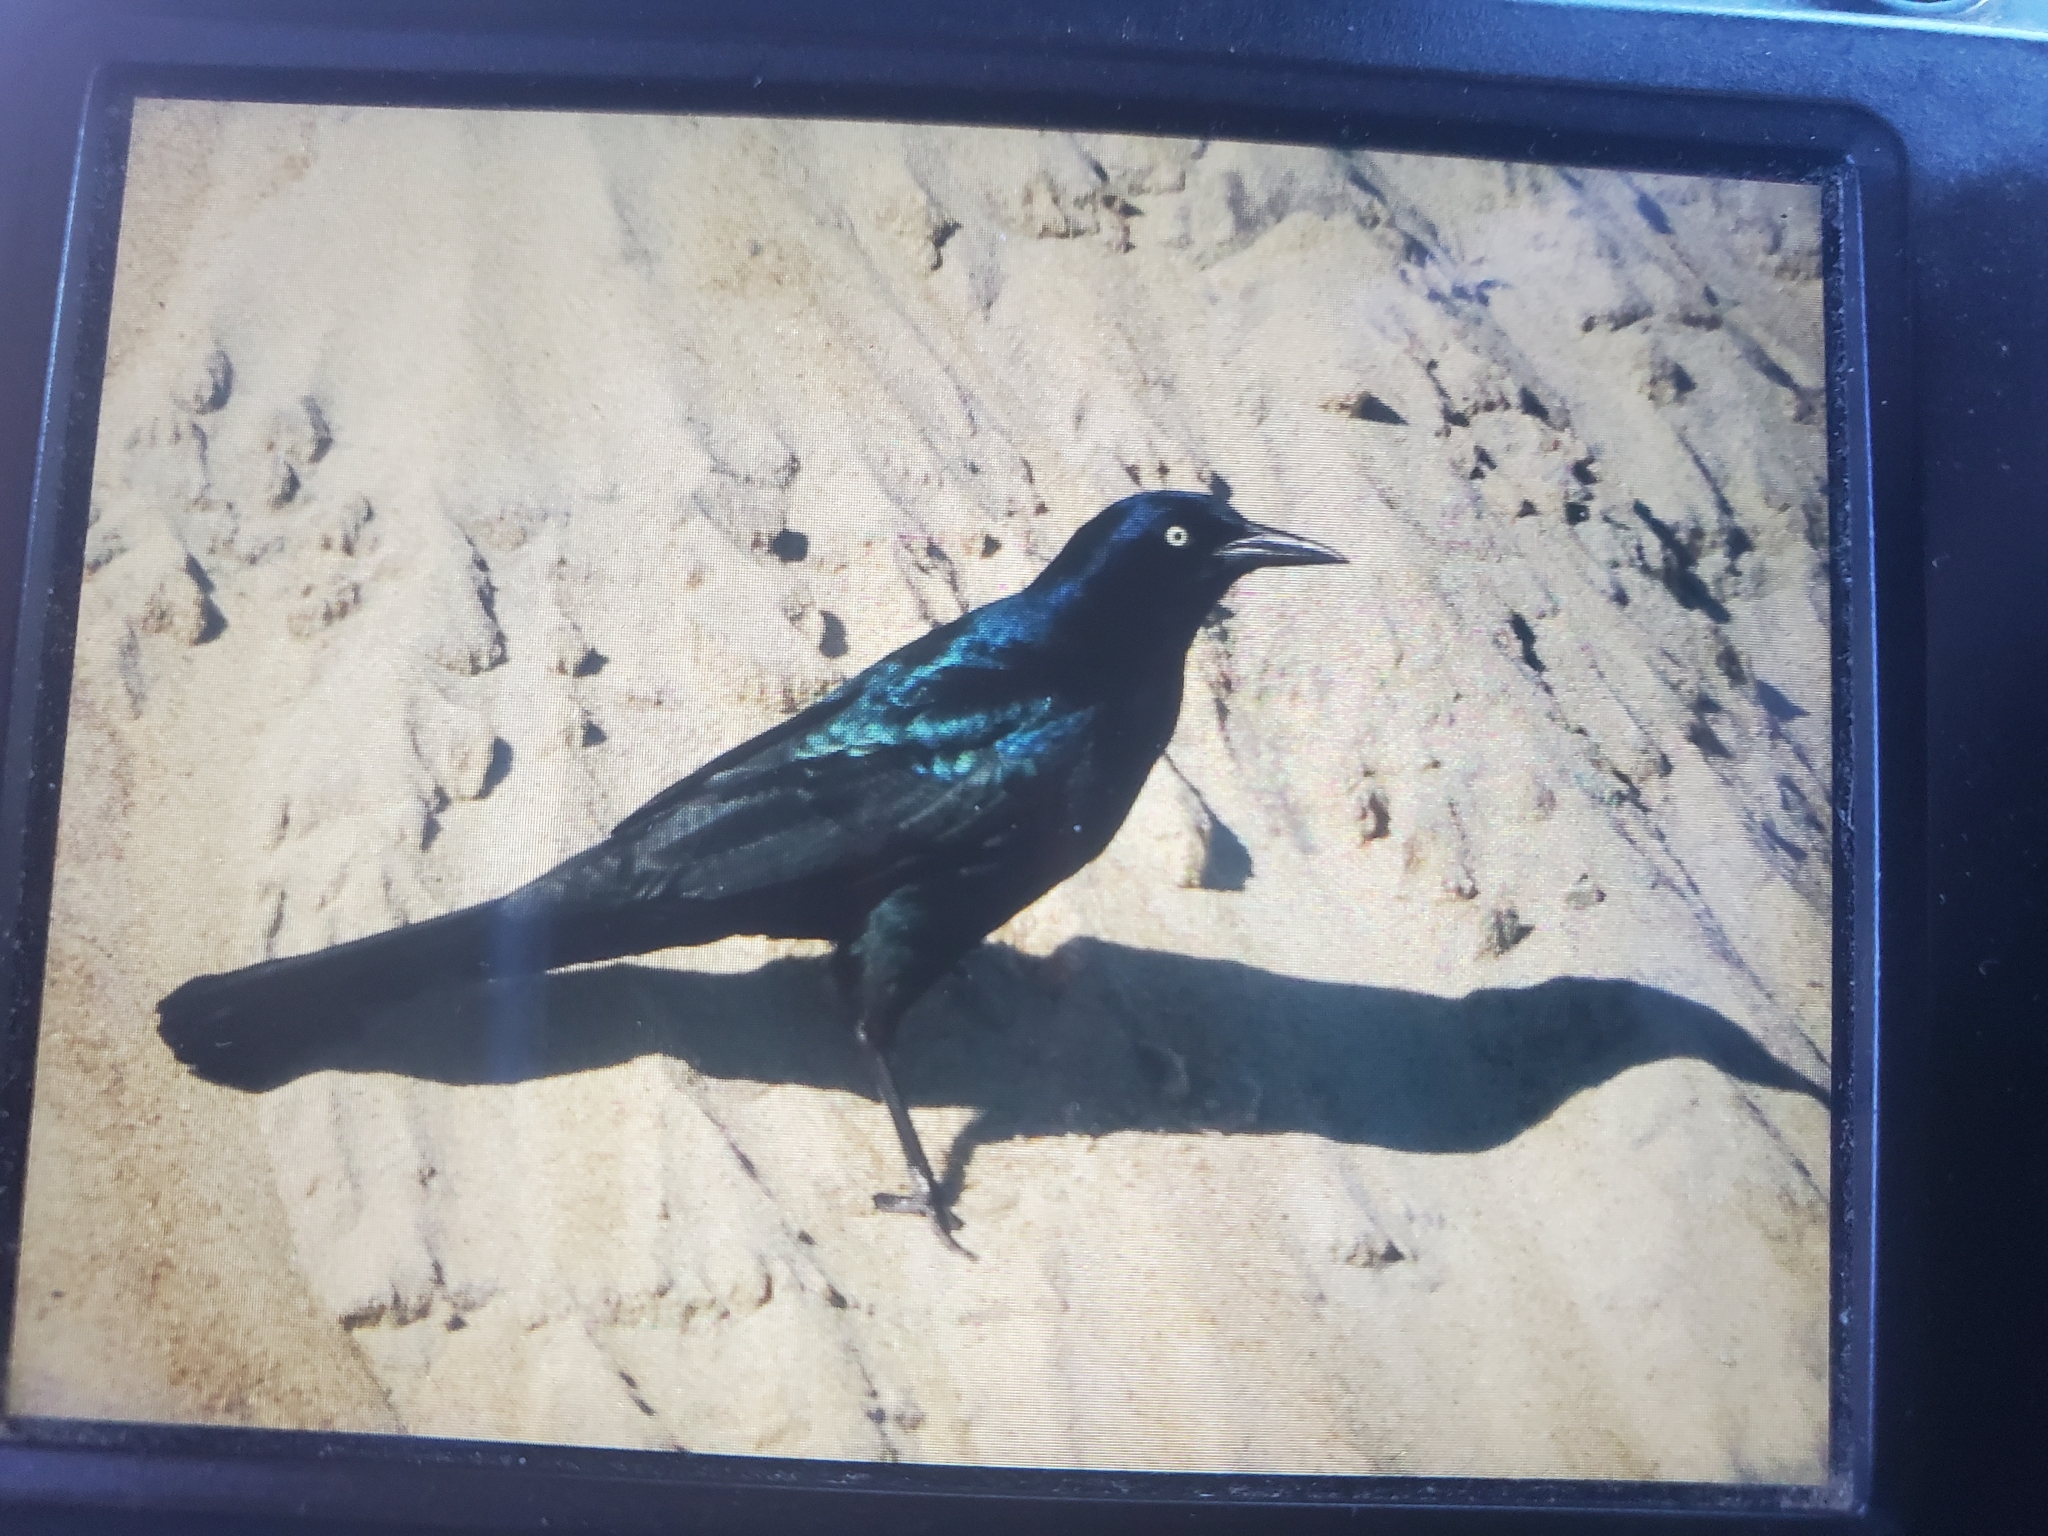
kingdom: Animalia
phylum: Chordata
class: Aves
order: Passeriformes
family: Icteridae
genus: Quiscalus
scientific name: Quiscalus major
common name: Boat-tailed grackle
